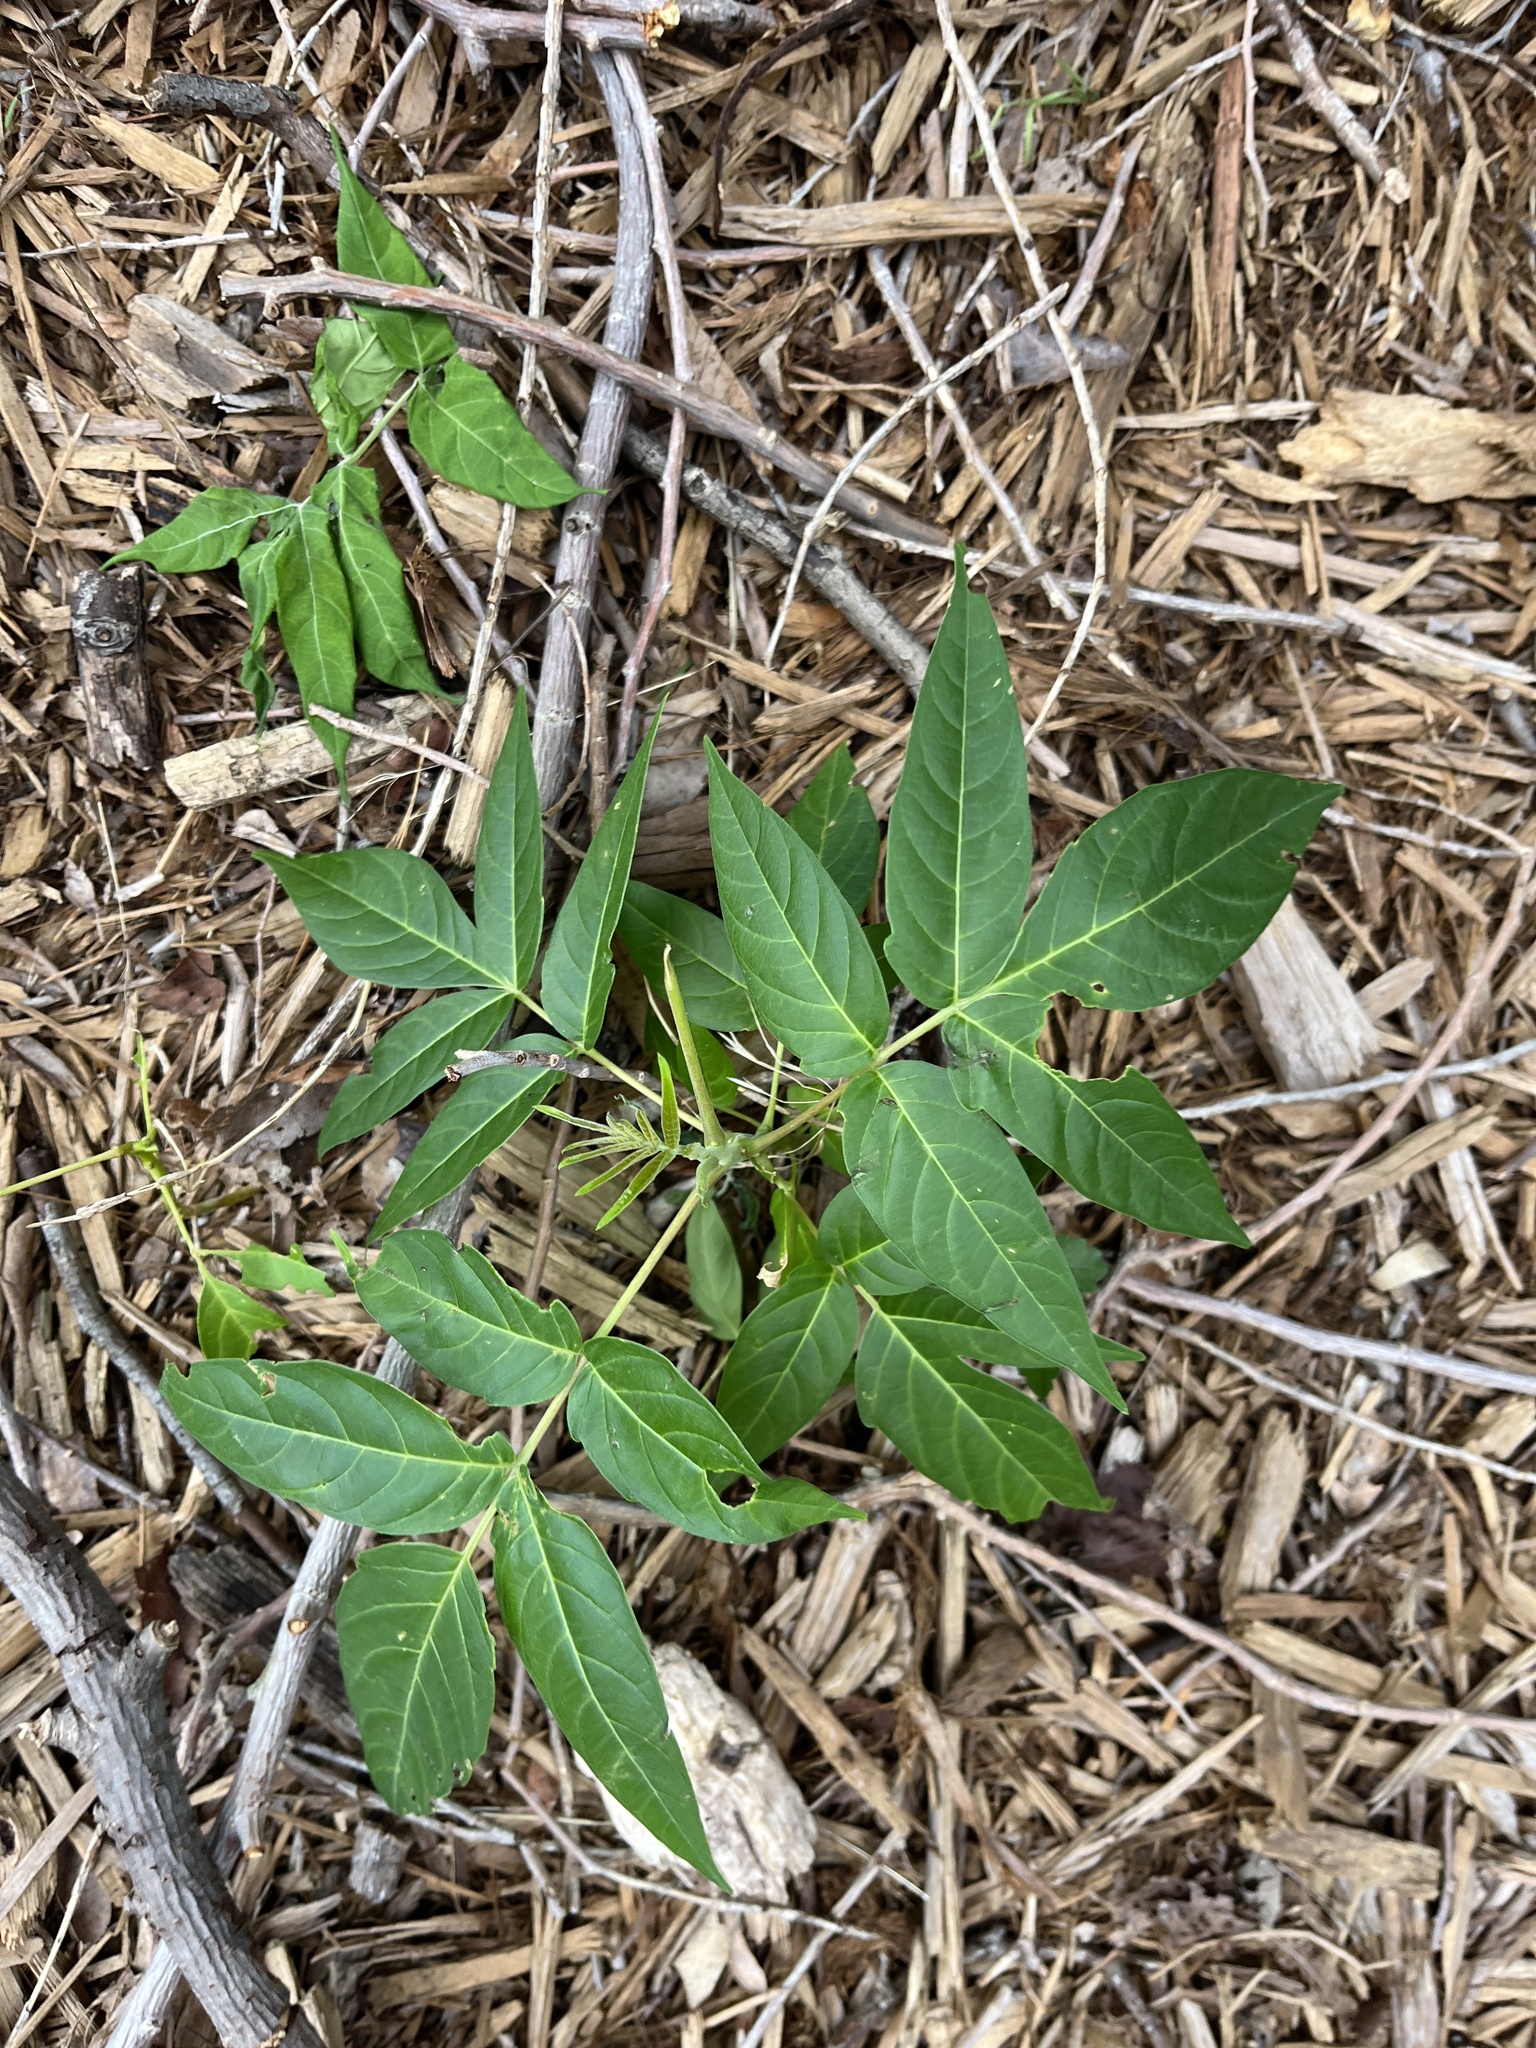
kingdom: Plantae
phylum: Tracheophyta
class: Magnoliopsida
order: Sapindales
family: Simaroubaceae
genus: Ailanthus
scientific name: Ailanthus altissima
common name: Tree-of-heaven
